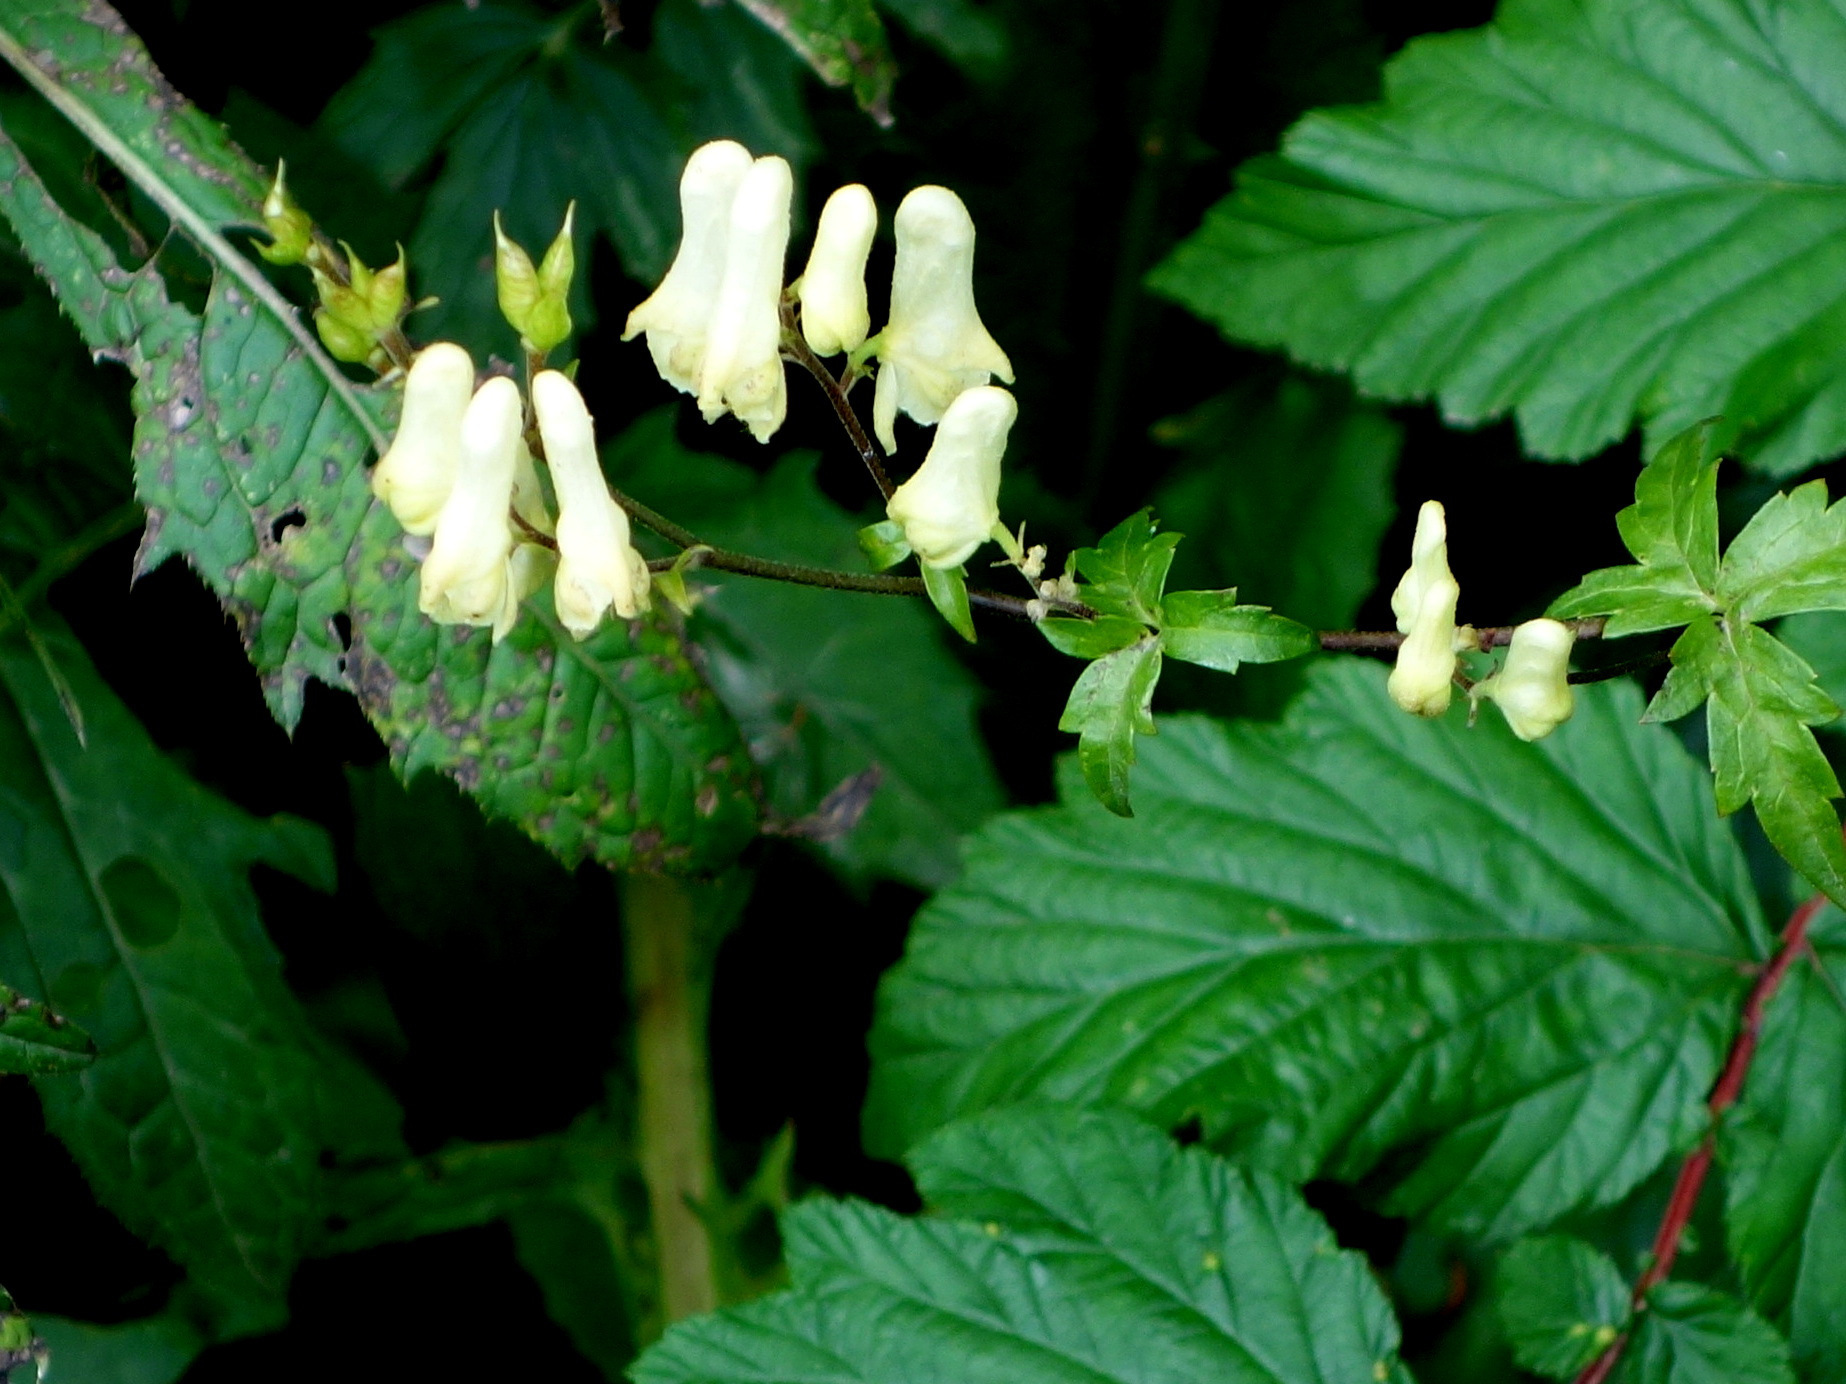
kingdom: Plantae
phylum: Tracheophyta
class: Magnoliopsida
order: Ranunculales
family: Ranunculaceae
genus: Aconitum
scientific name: Aconitum lycoctonum
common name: Wolf's-bane
